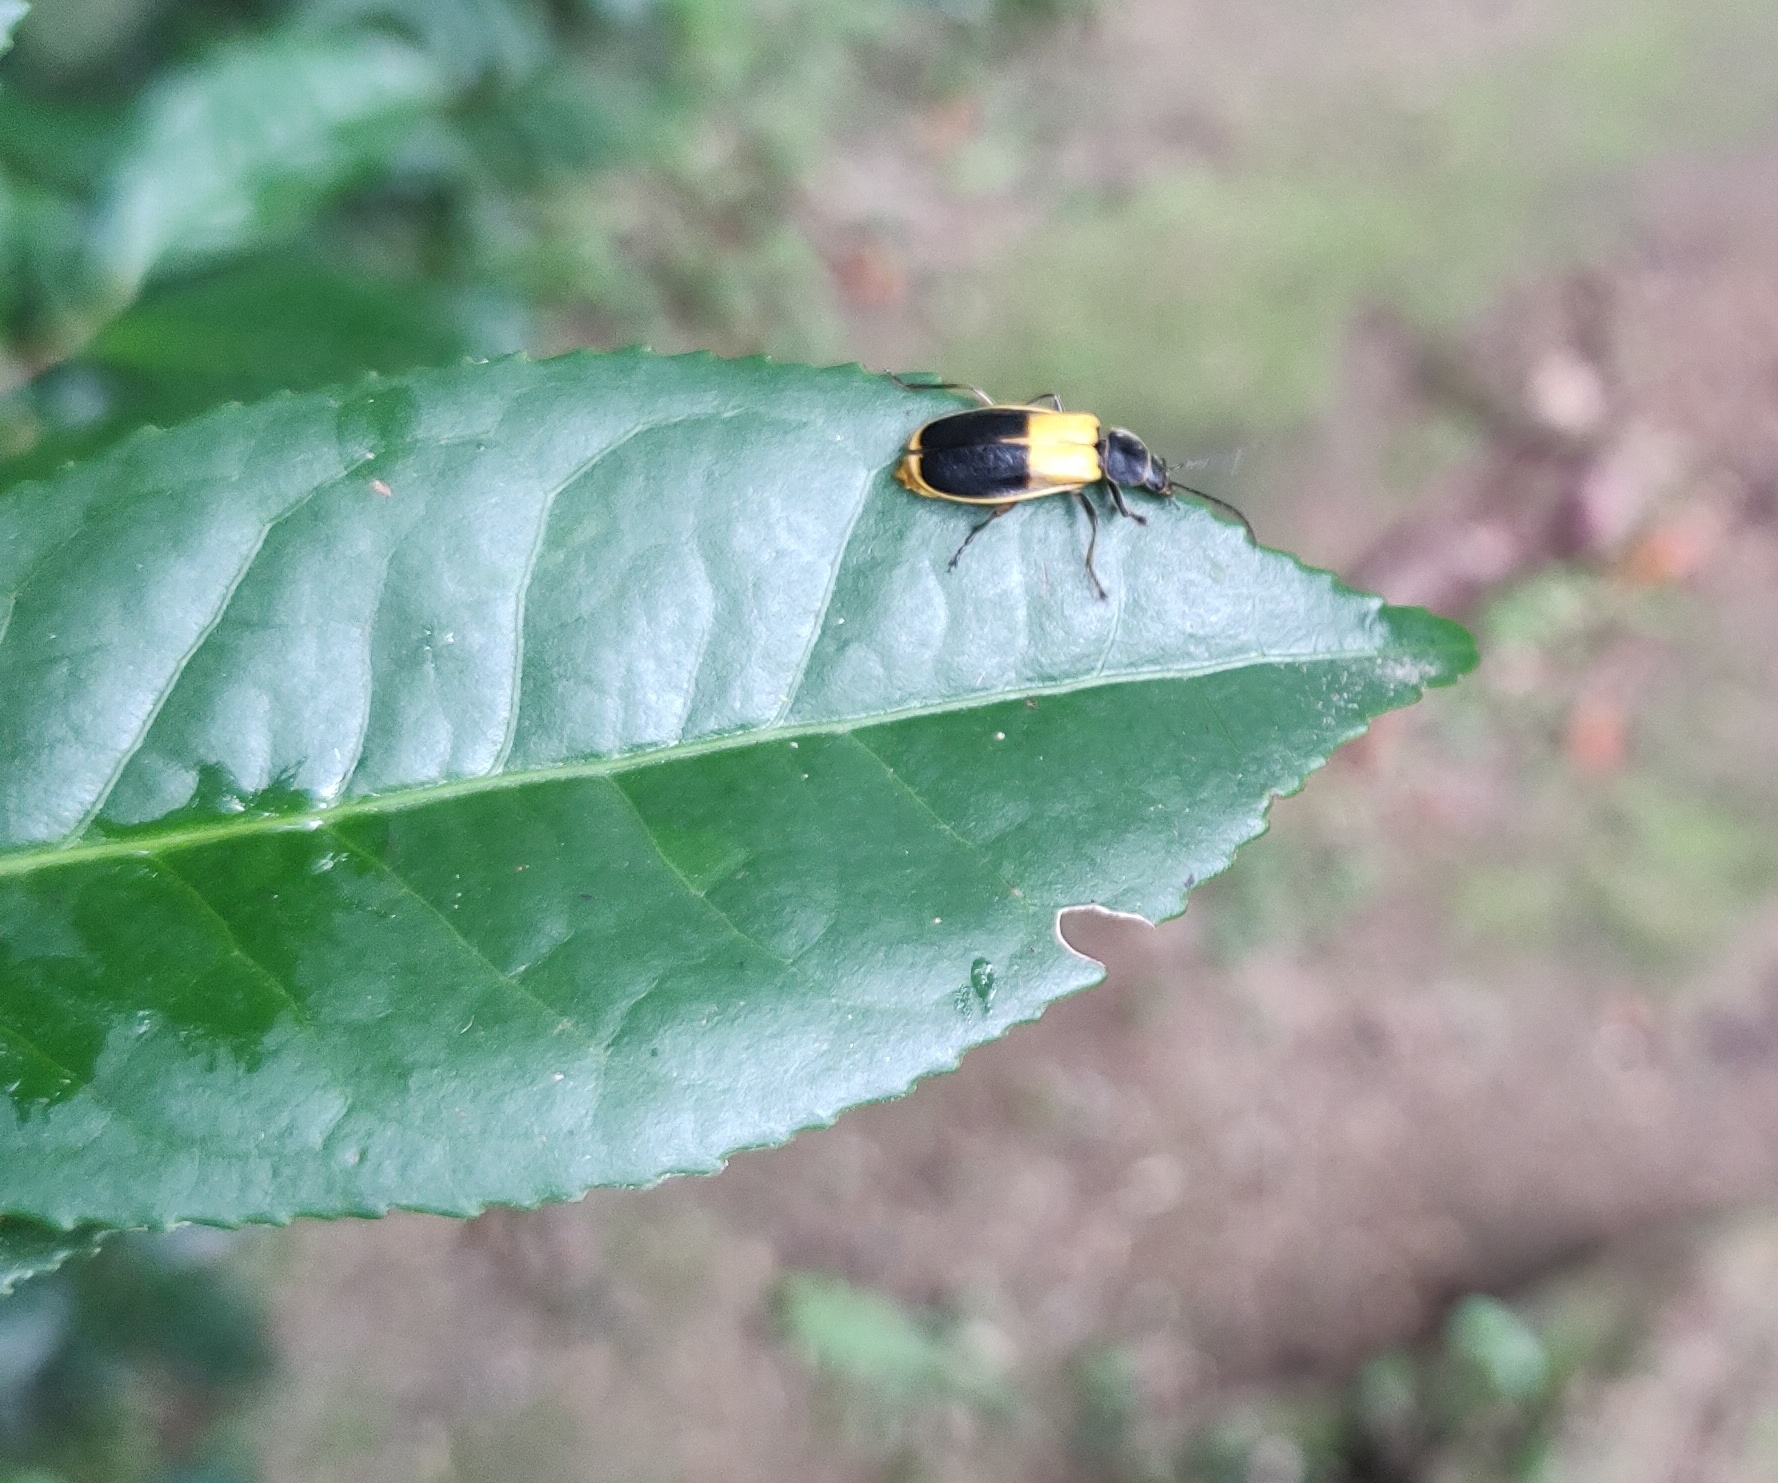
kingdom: Animalia
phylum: Arthropoda
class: Insecta
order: Coleoptera
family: Cantharidae
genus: Chauliognathus
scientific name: Chauliognathus
